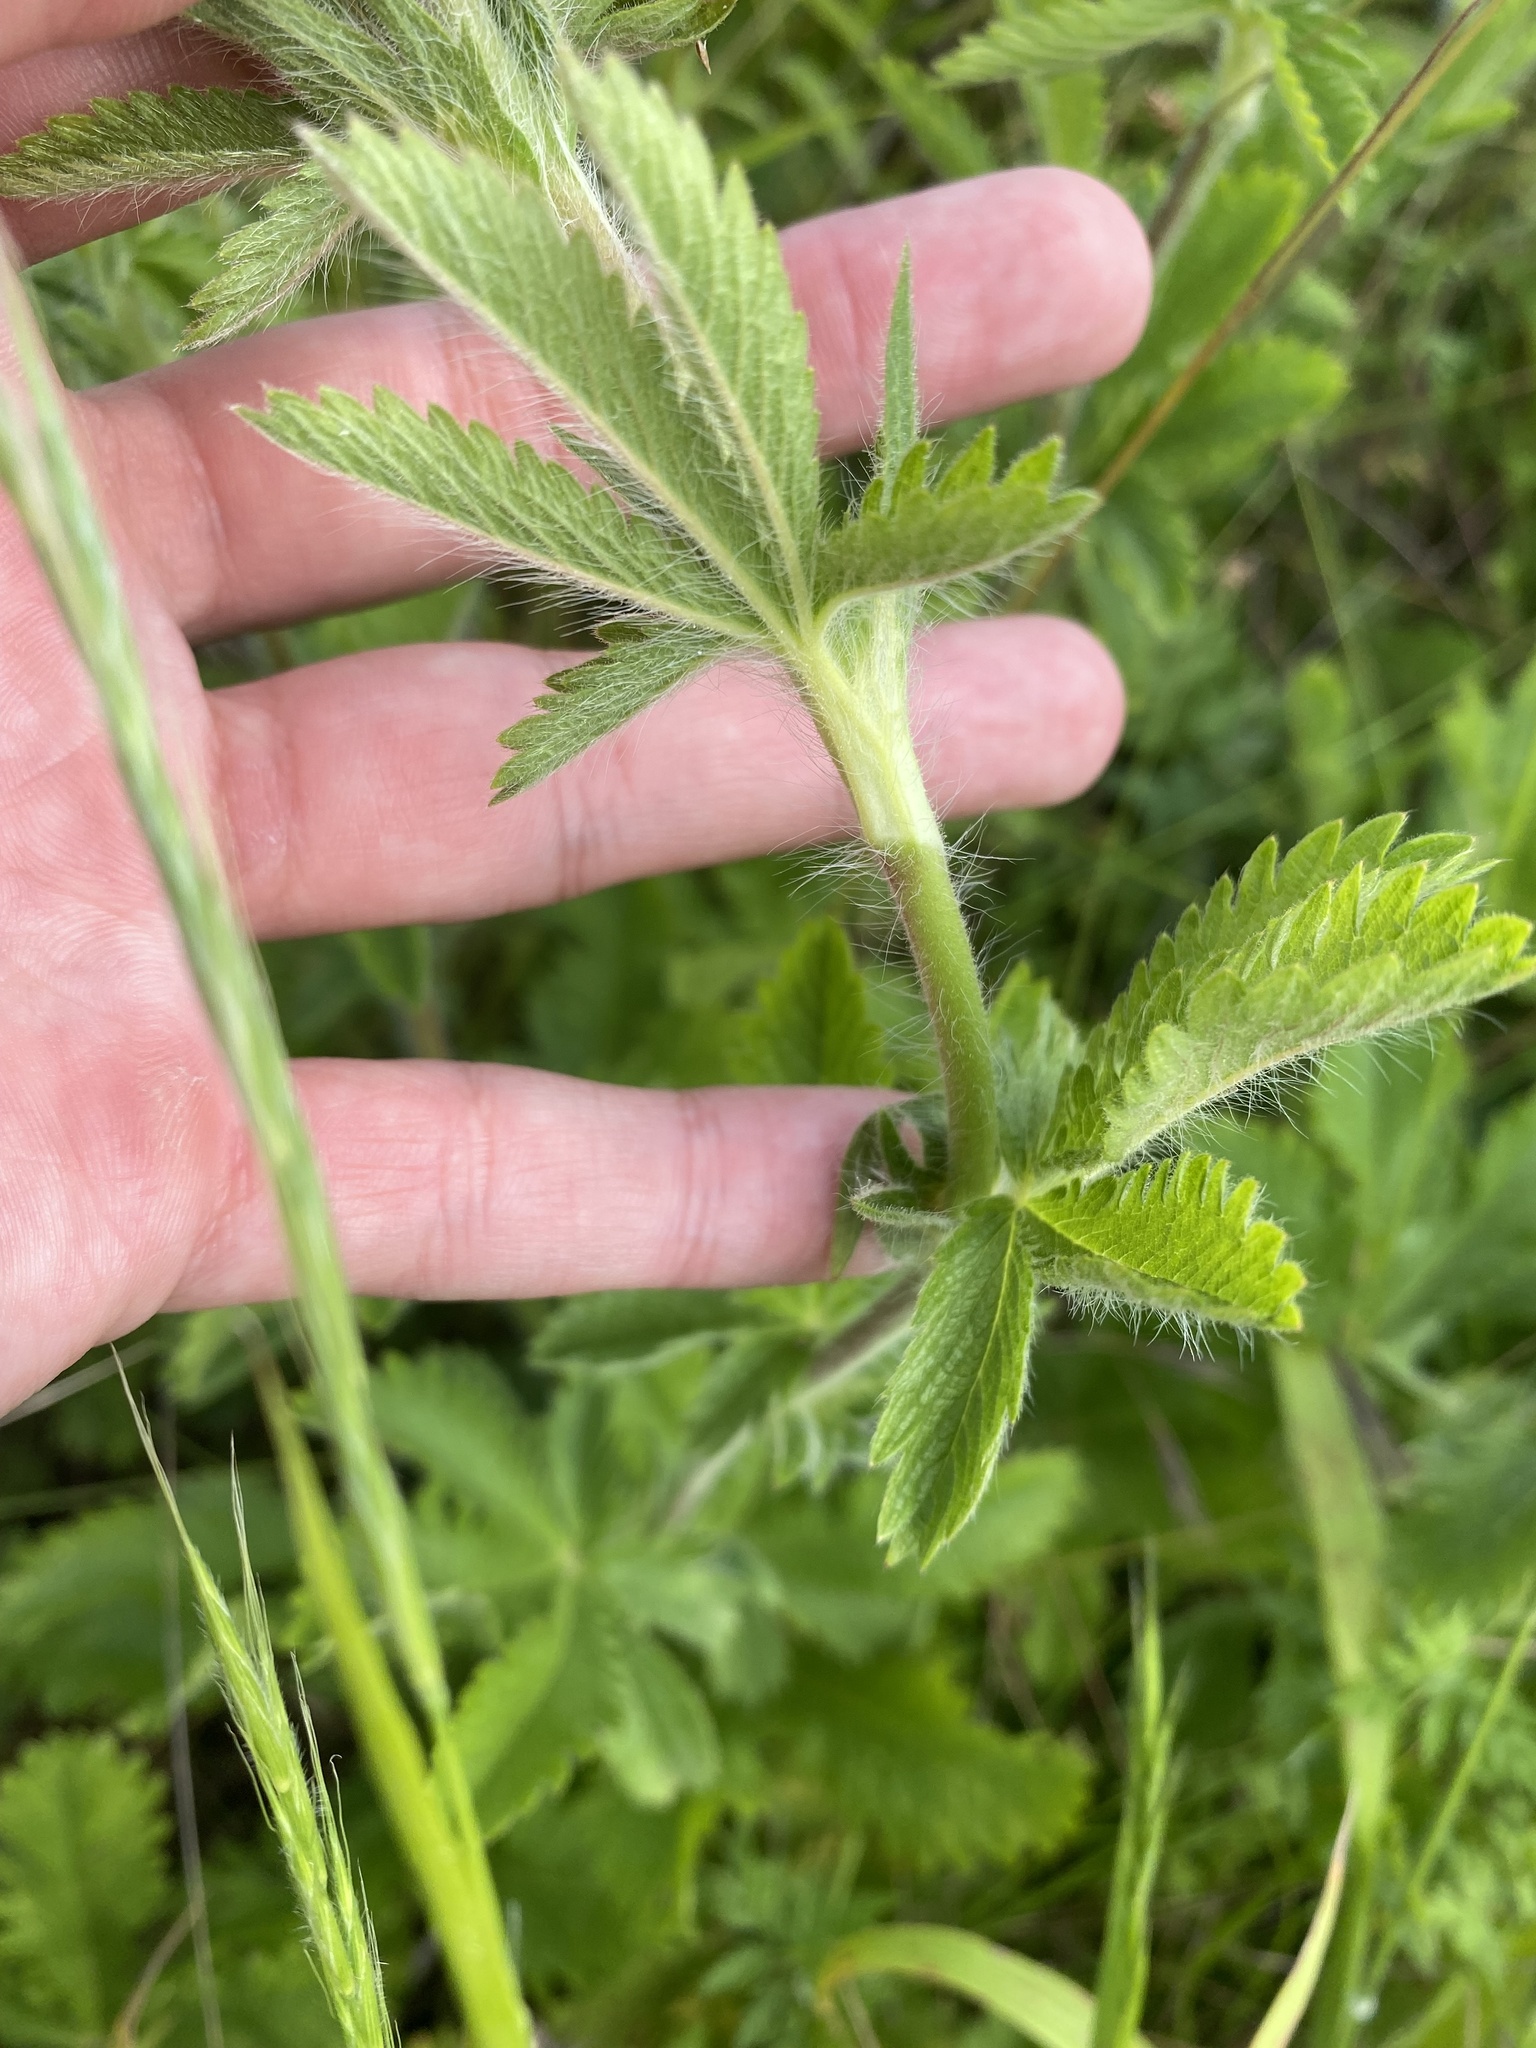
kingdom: Plantae
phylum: Tracheophyta
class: Magnoliopsida
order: Rosales
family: Rosaceae
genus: Potentilla
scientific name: Potentilla recta
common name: Sulphur cinquefoil
